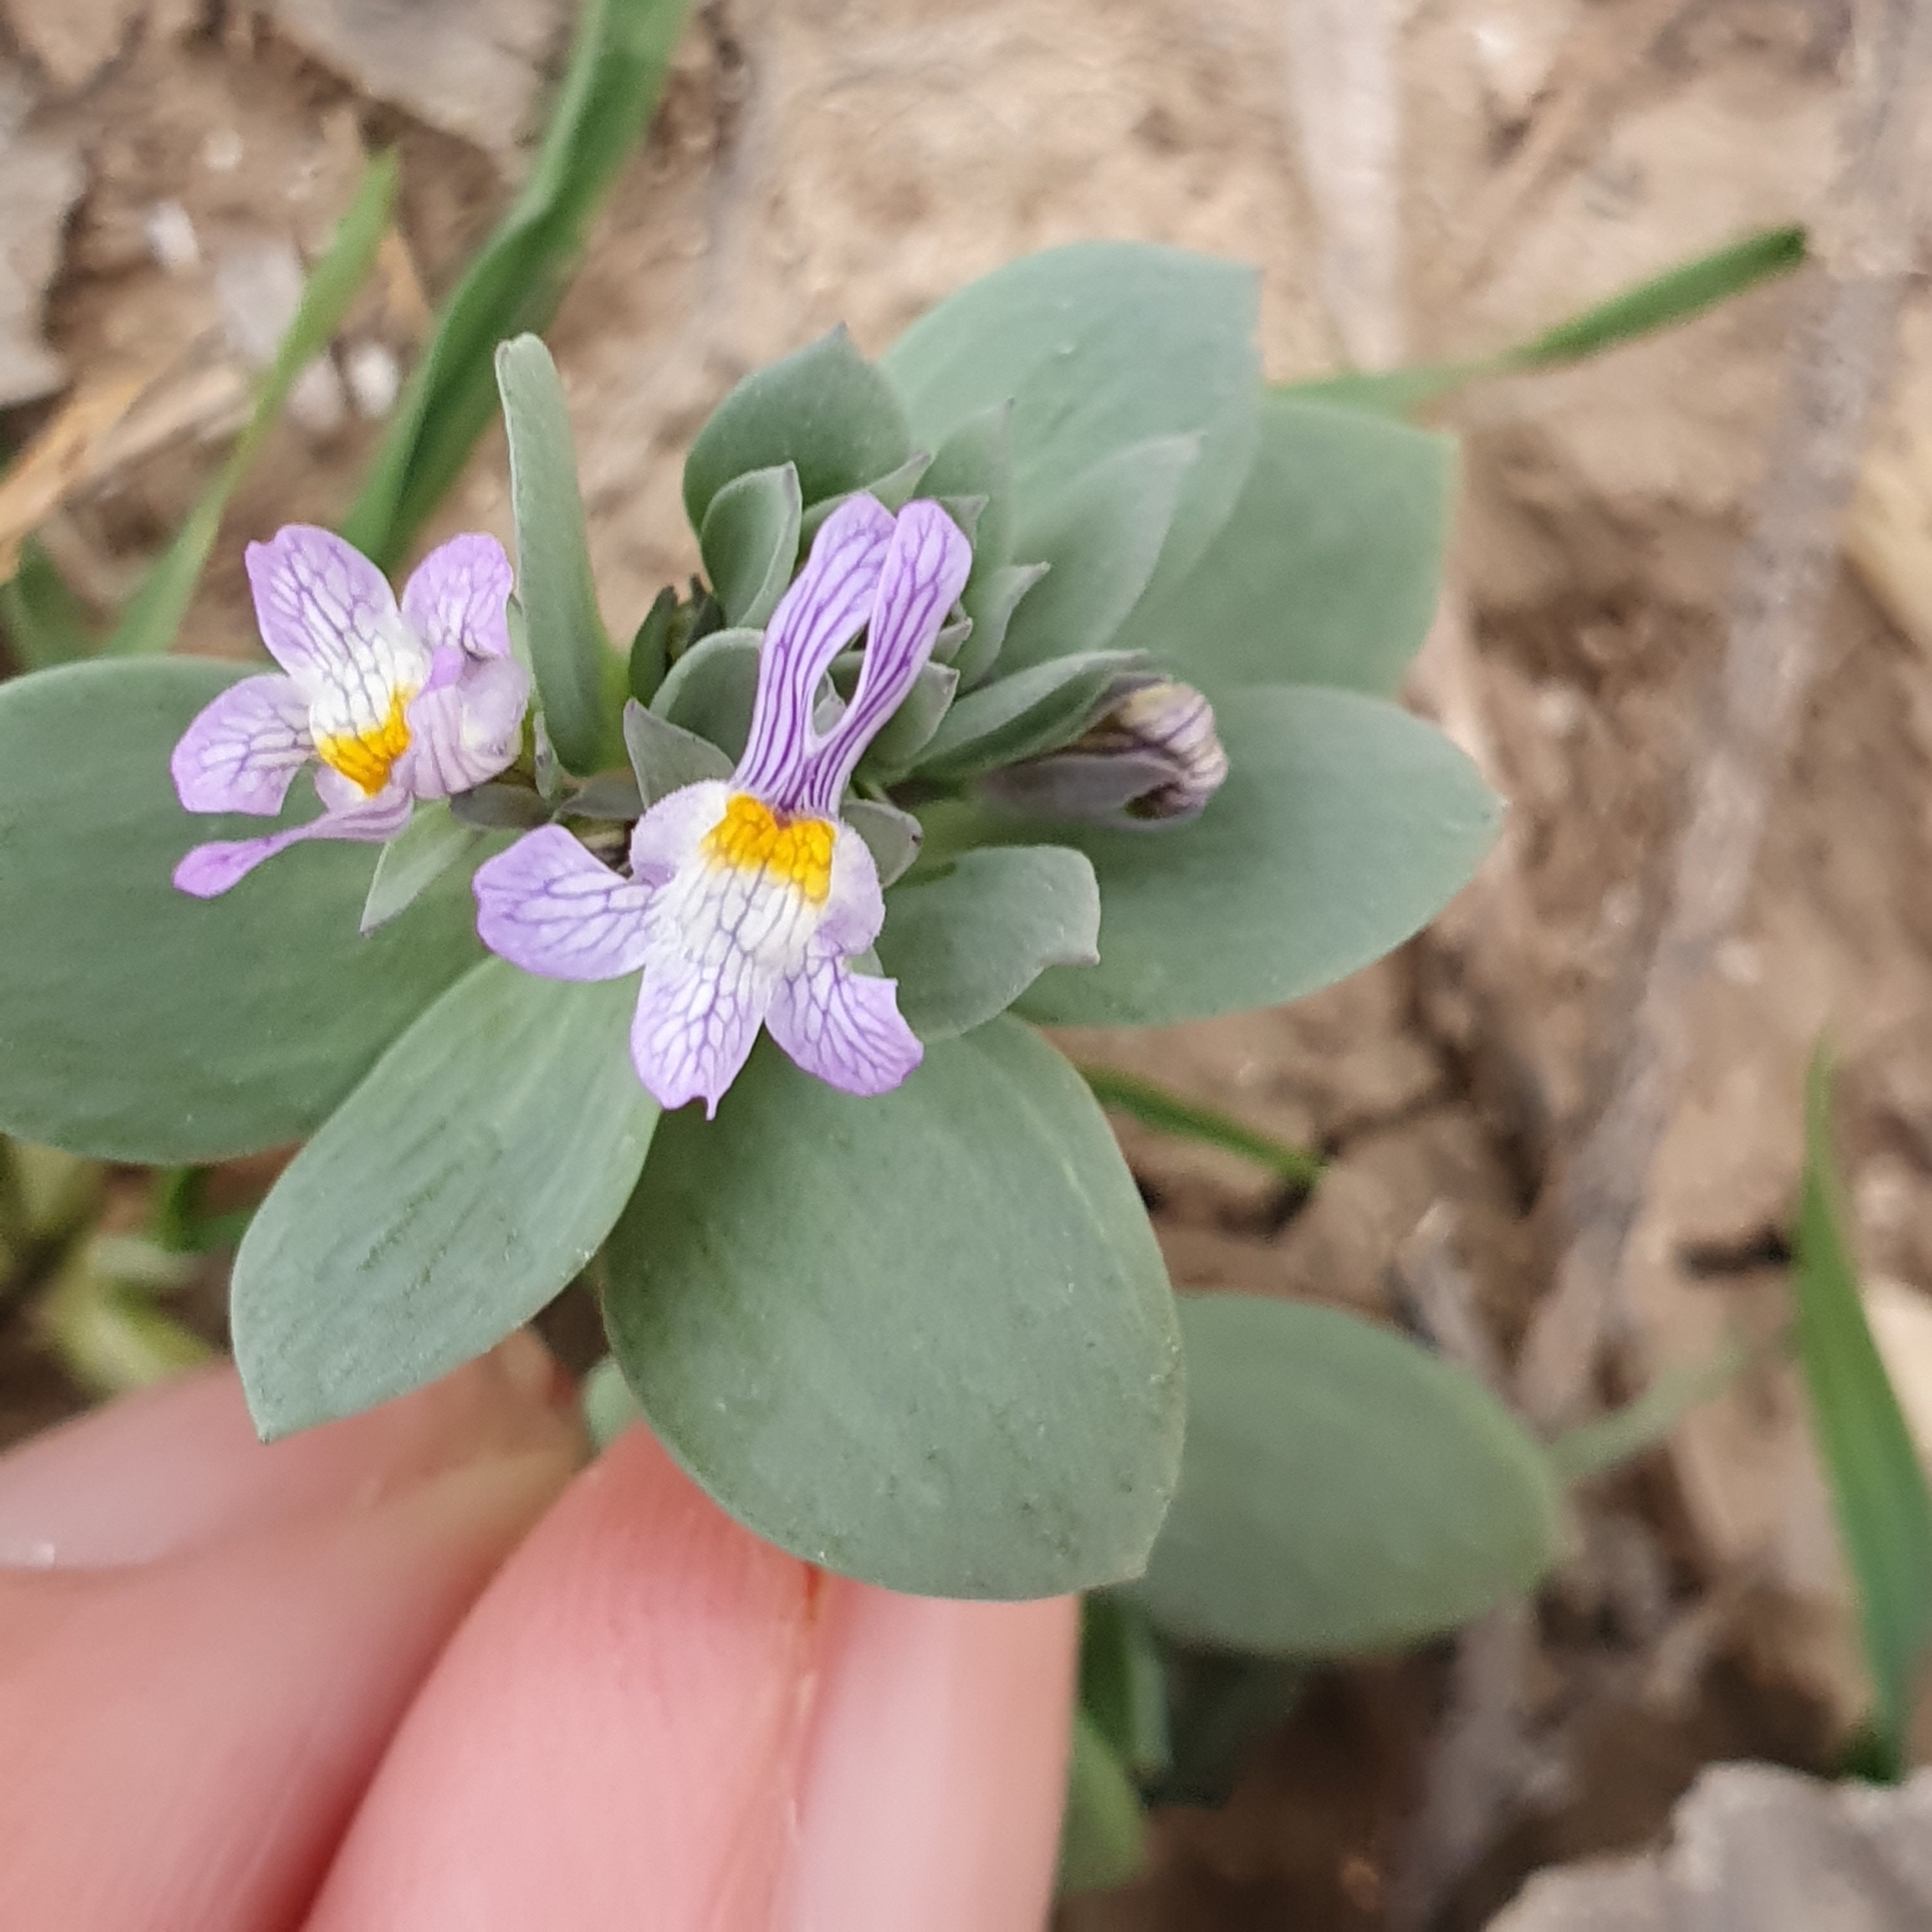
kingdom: Plantae
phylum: Tracheophyta
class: Magnoliopsida
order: Lamiales
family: Plantaginaceae
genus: Linaria
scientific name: Linaria reflexa
